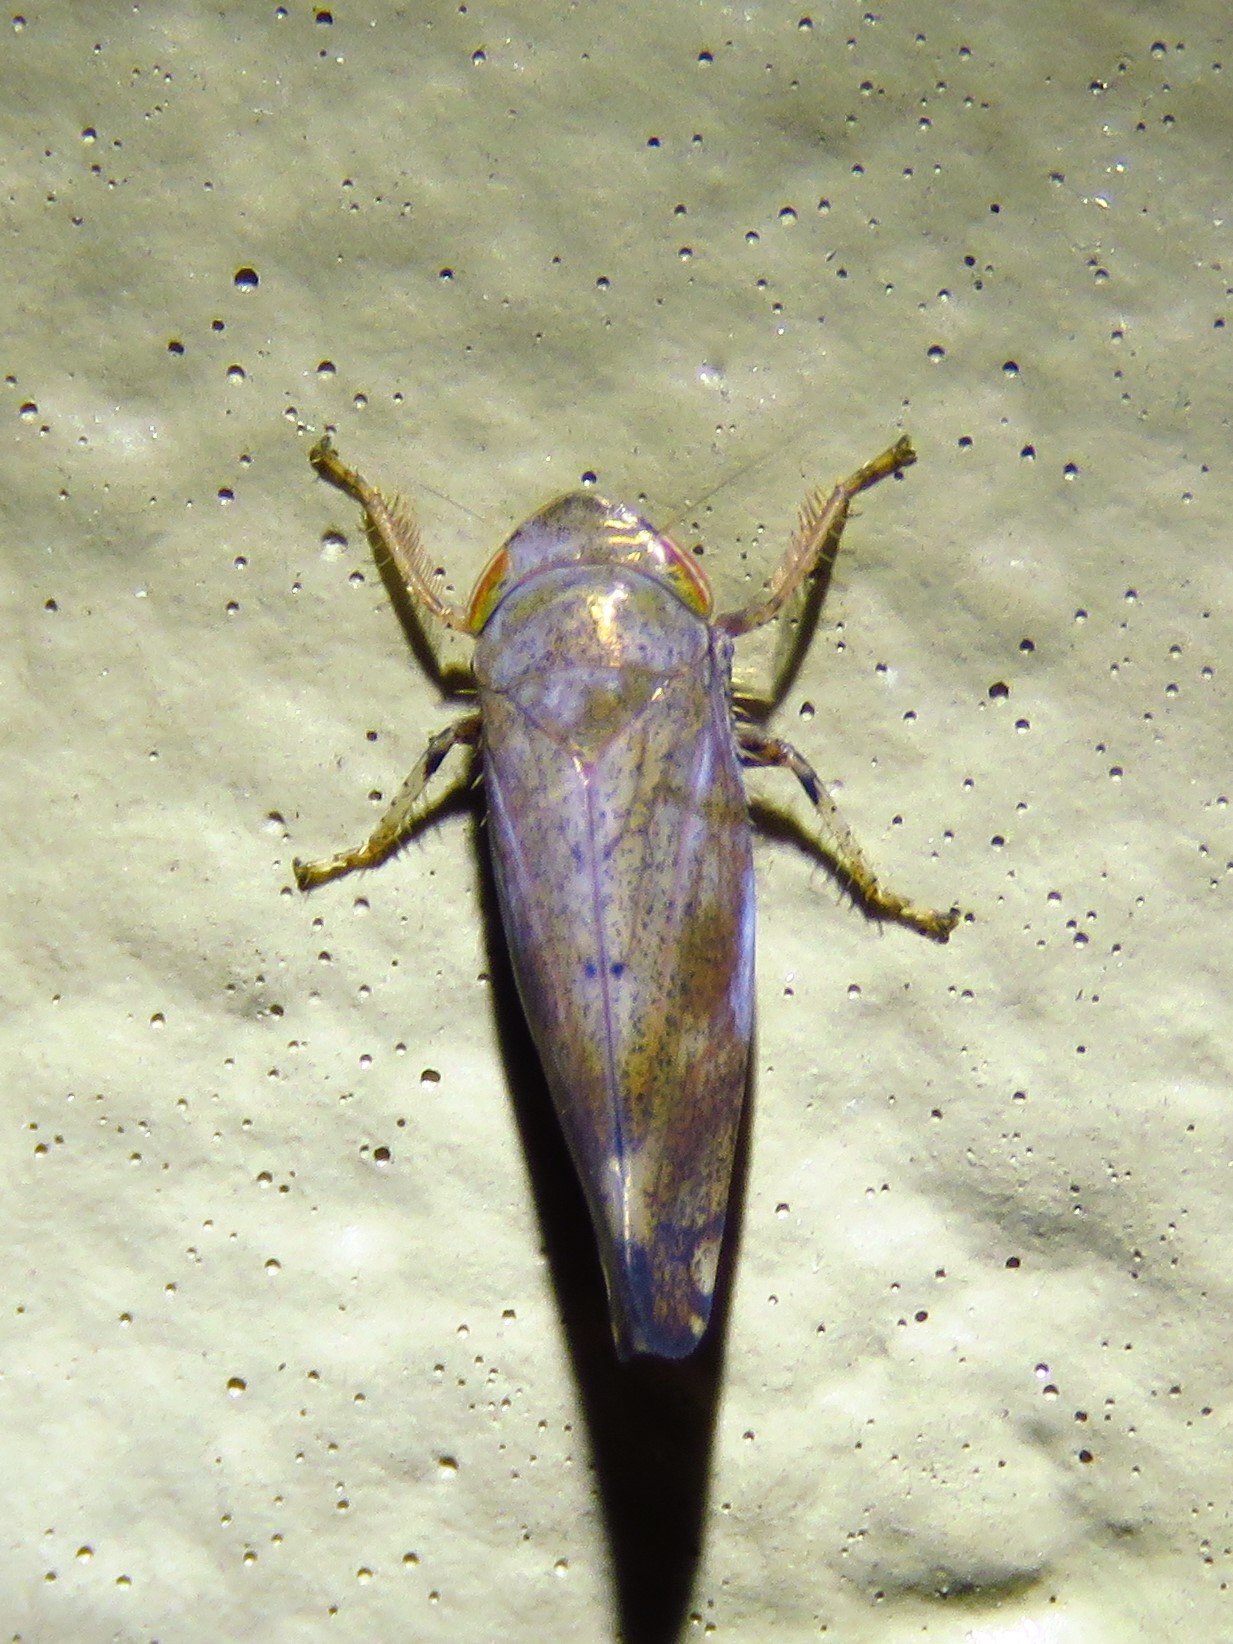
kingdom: Animalia
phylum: Arthropoda
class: Insecta
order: Hemiptera
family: Cicadellidae
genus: Fieberiella
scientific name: Fieberiella florii
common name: Flor’s leafhopper
